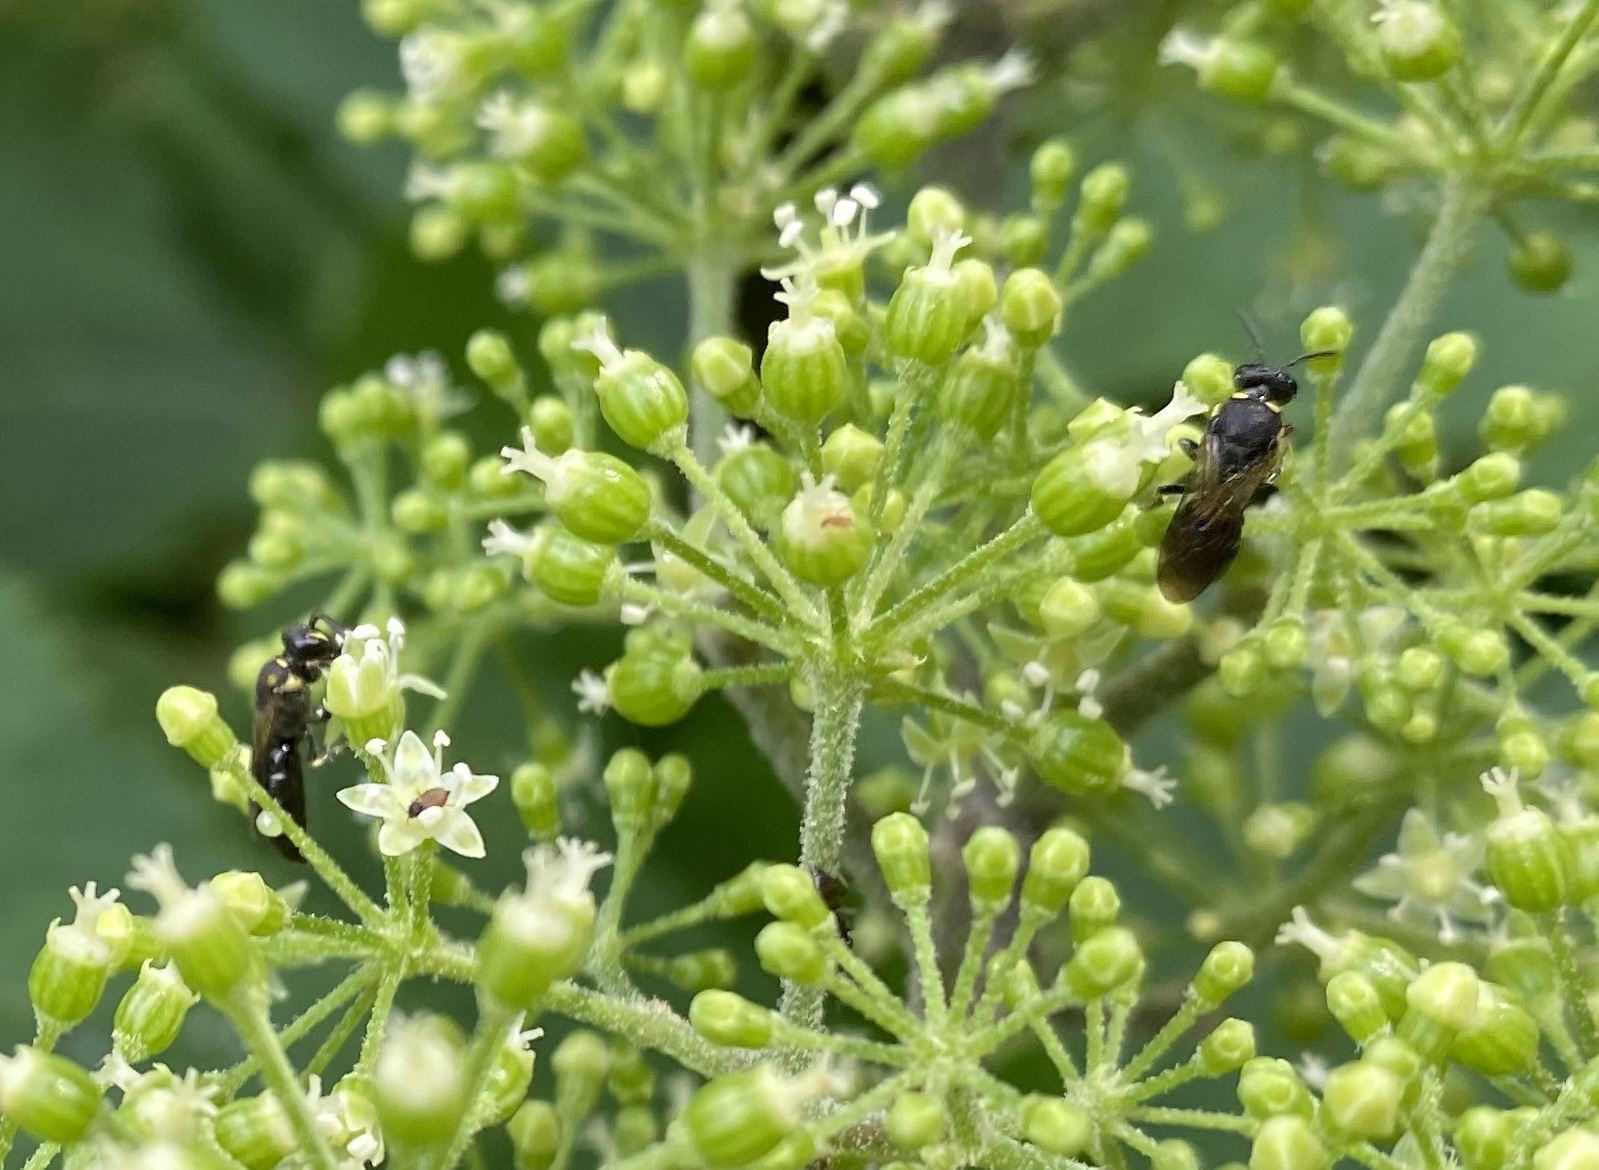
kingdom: Animalia
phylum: Arthropoda
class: Insecta
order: Hymenoptera
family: Colletidae
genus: Hylaeus
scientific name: Hylaeus modestus
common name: Yellow-faced bee
